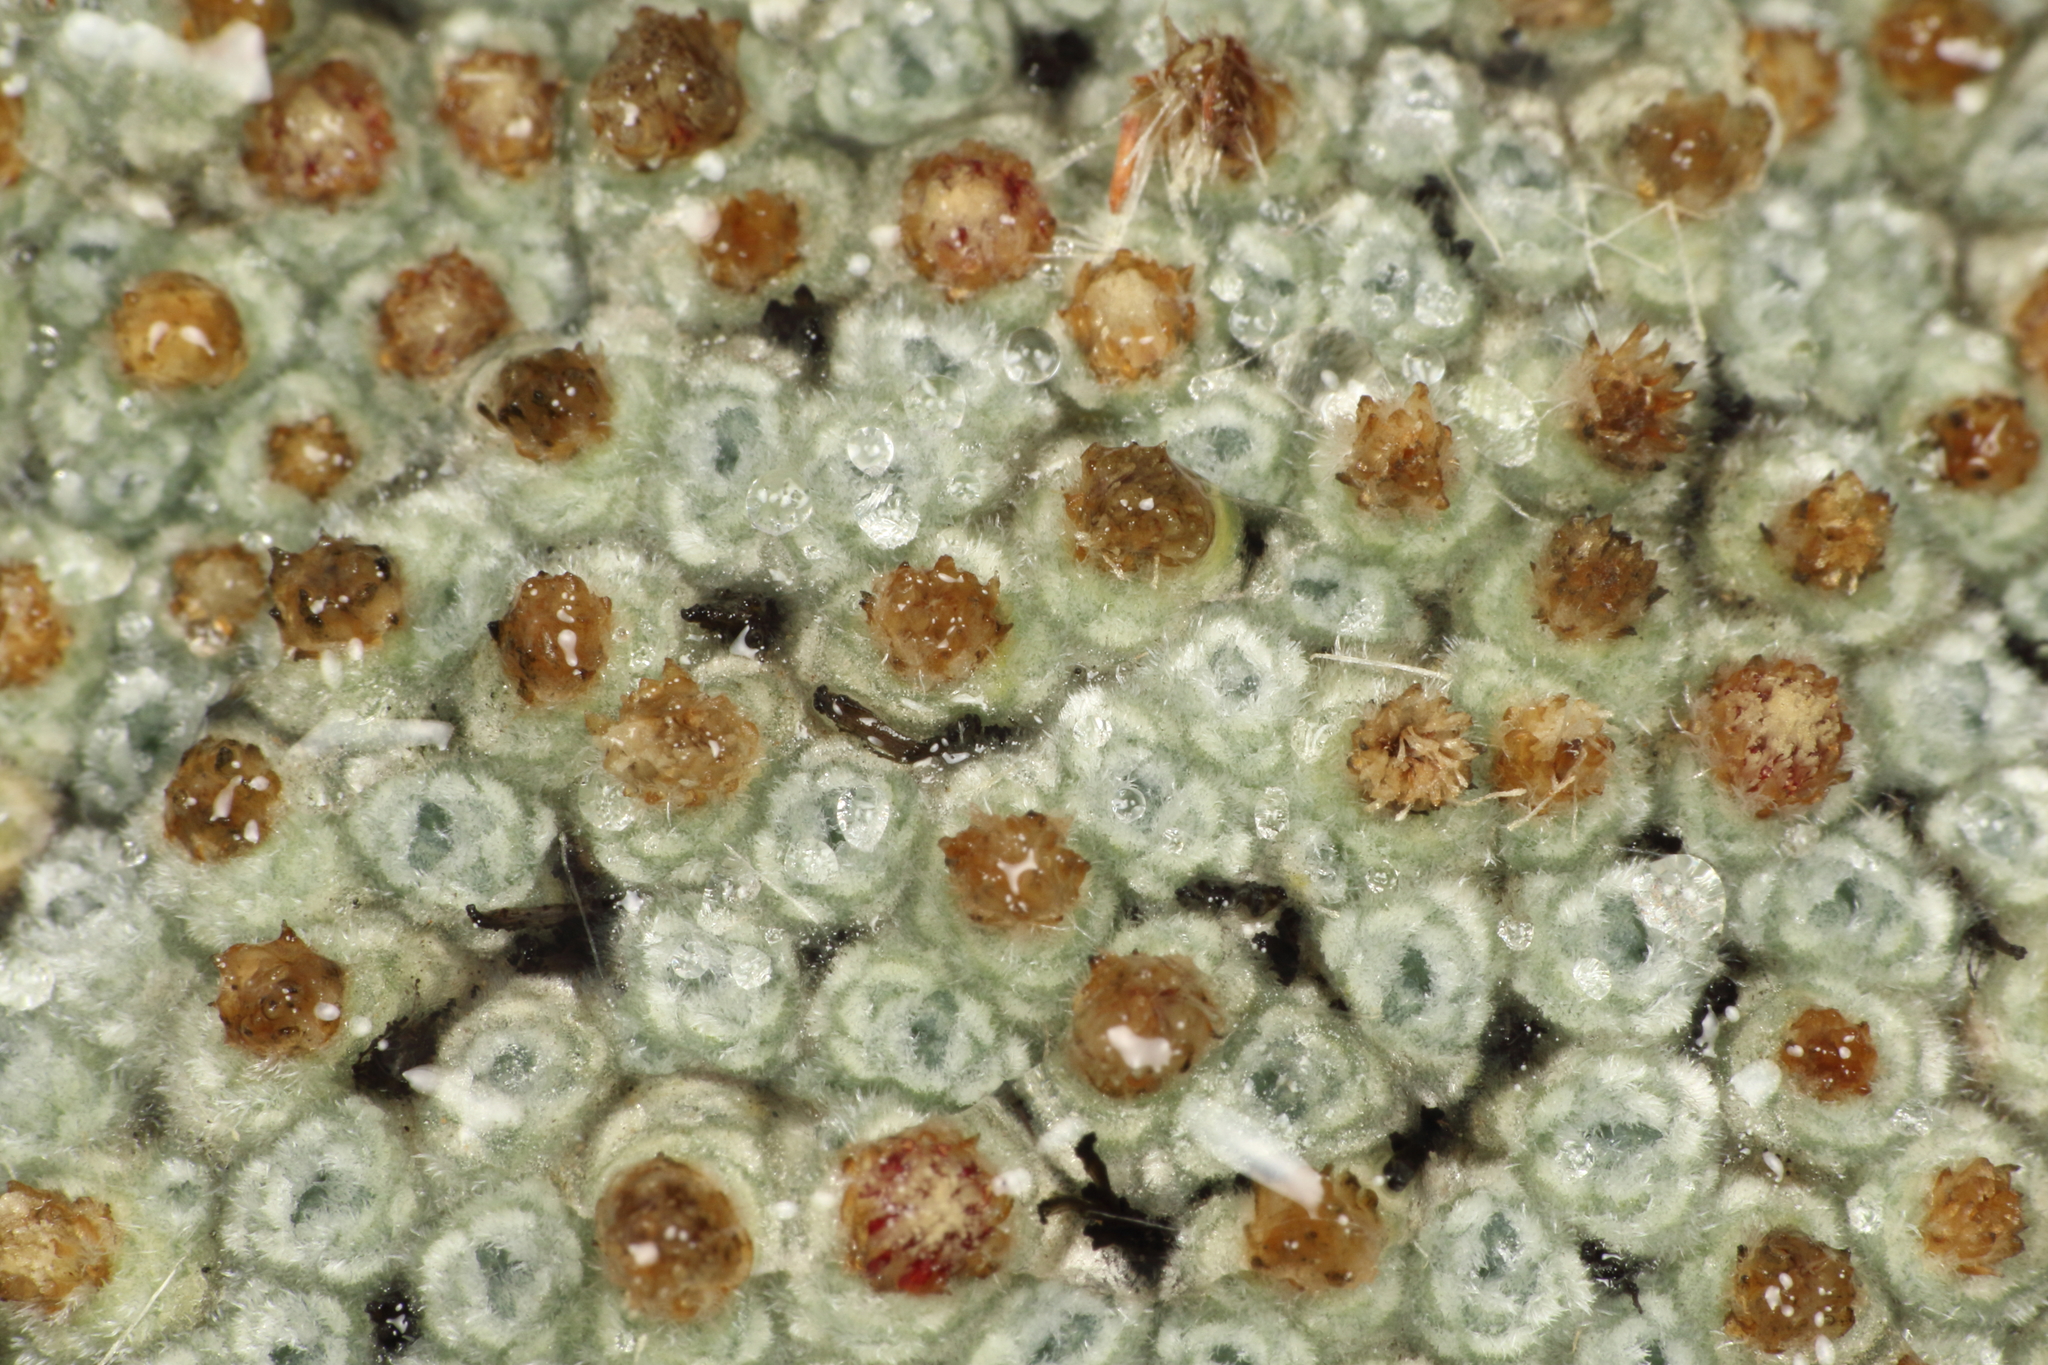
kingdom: Plantae
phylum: Tracheophyta
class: Magnoliopsida
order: Asterales
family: Asteraceae
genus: Raoulia
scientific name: Raoulia eximia
